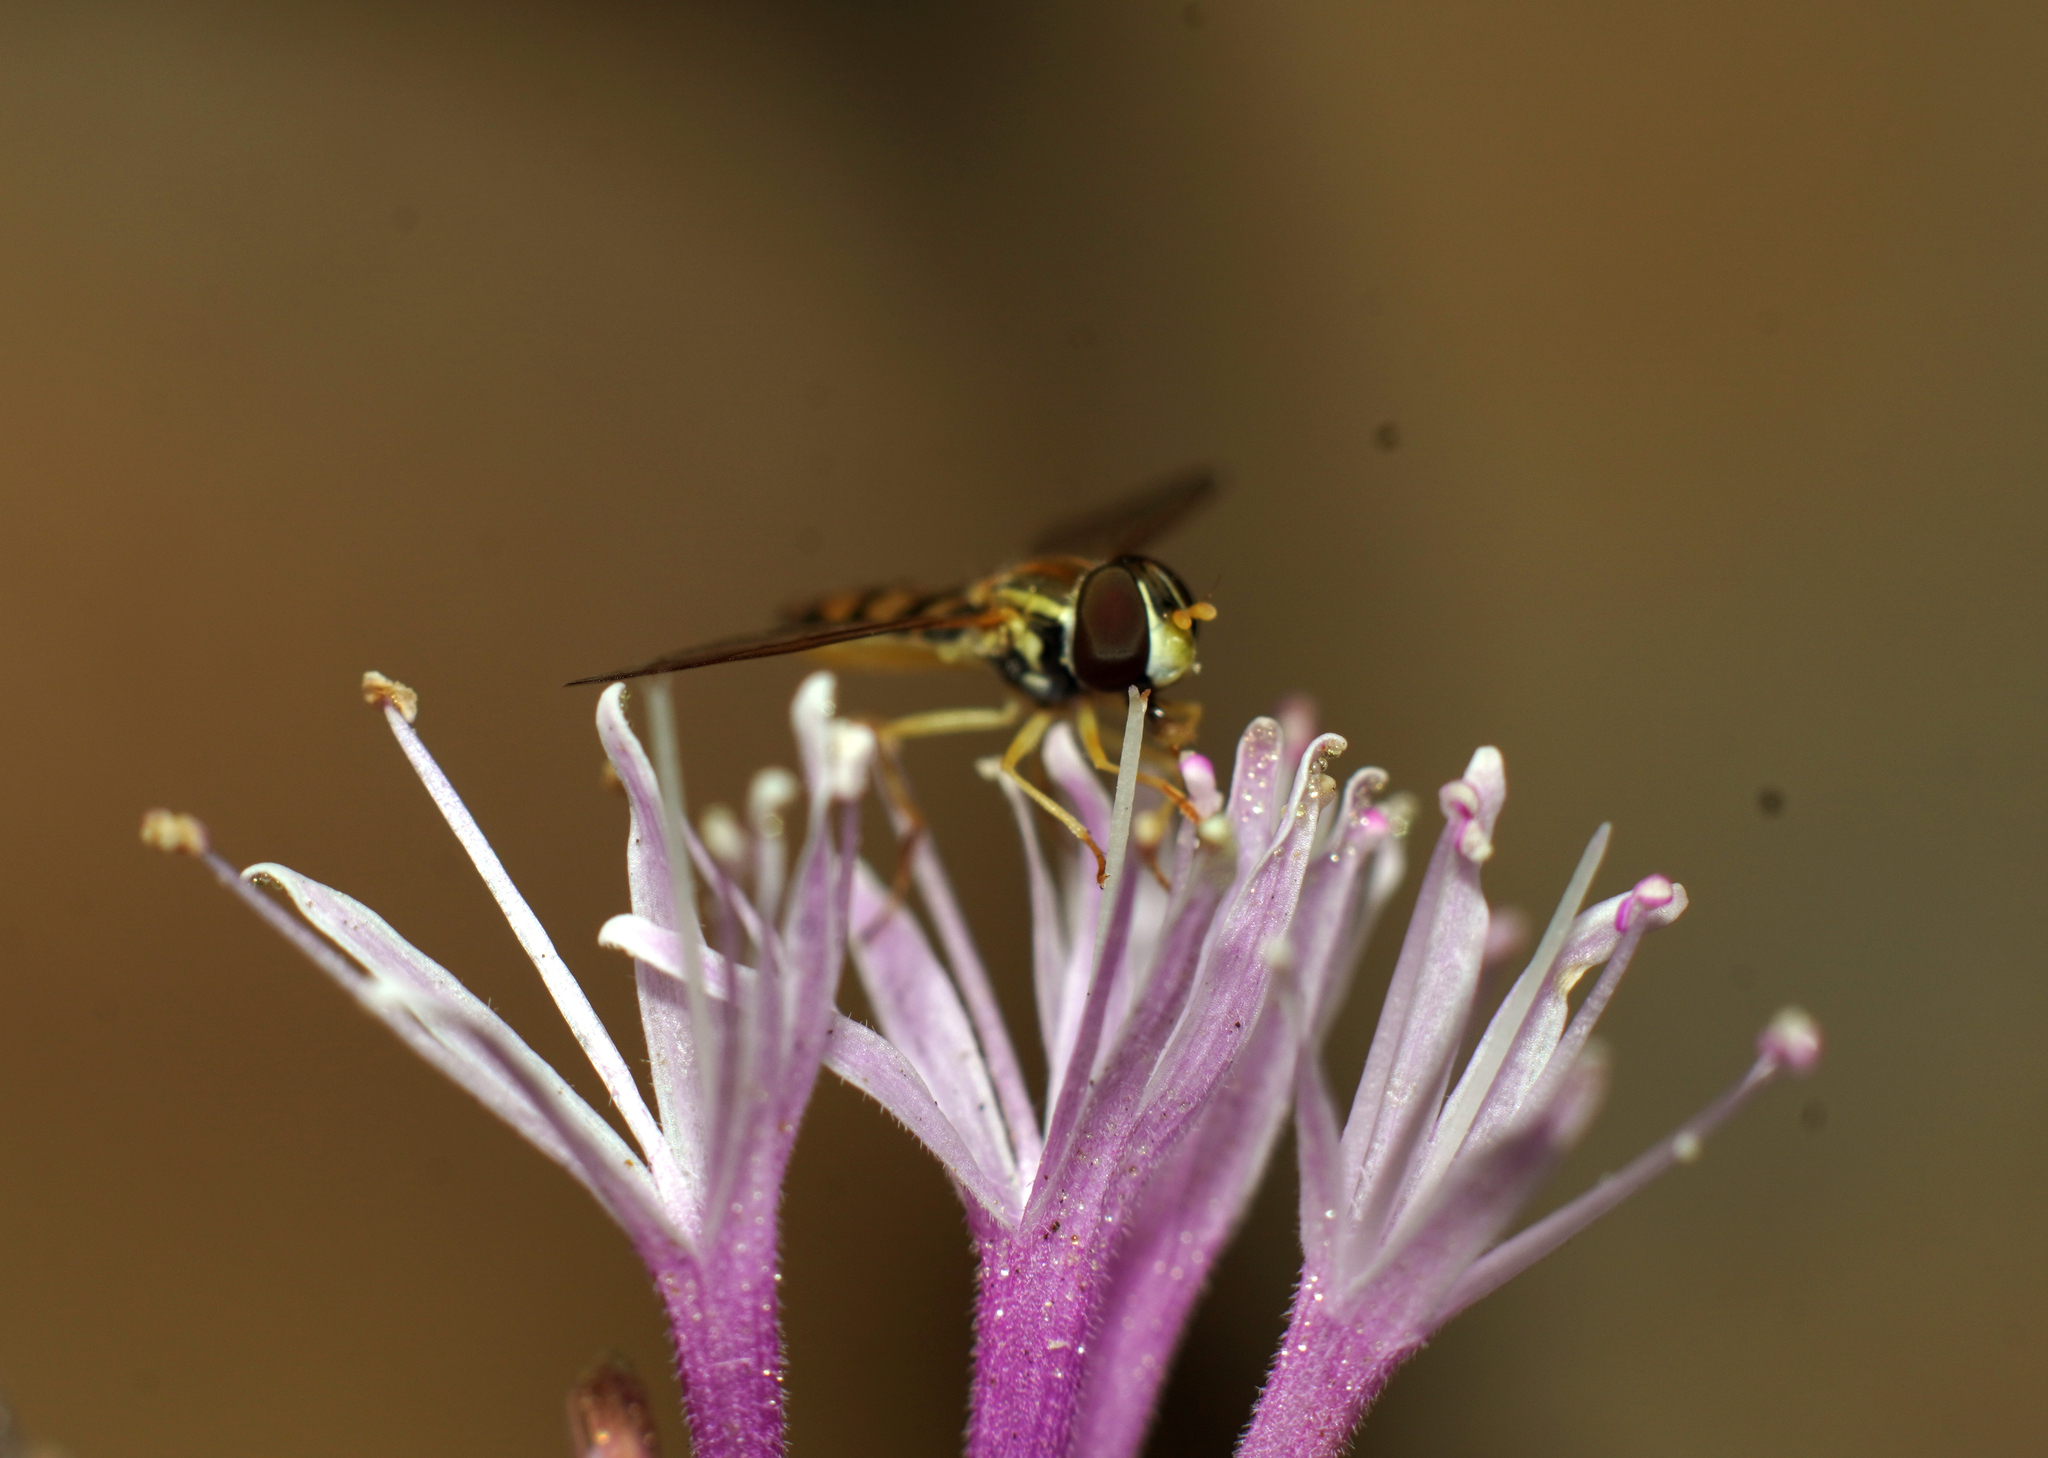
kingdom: Animalia
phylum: Arthropoda
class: Insecta
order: Diptera
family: Syrphidae
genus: Toxomerus
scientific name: Toxomerus marginatus
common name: Syrphid fly
